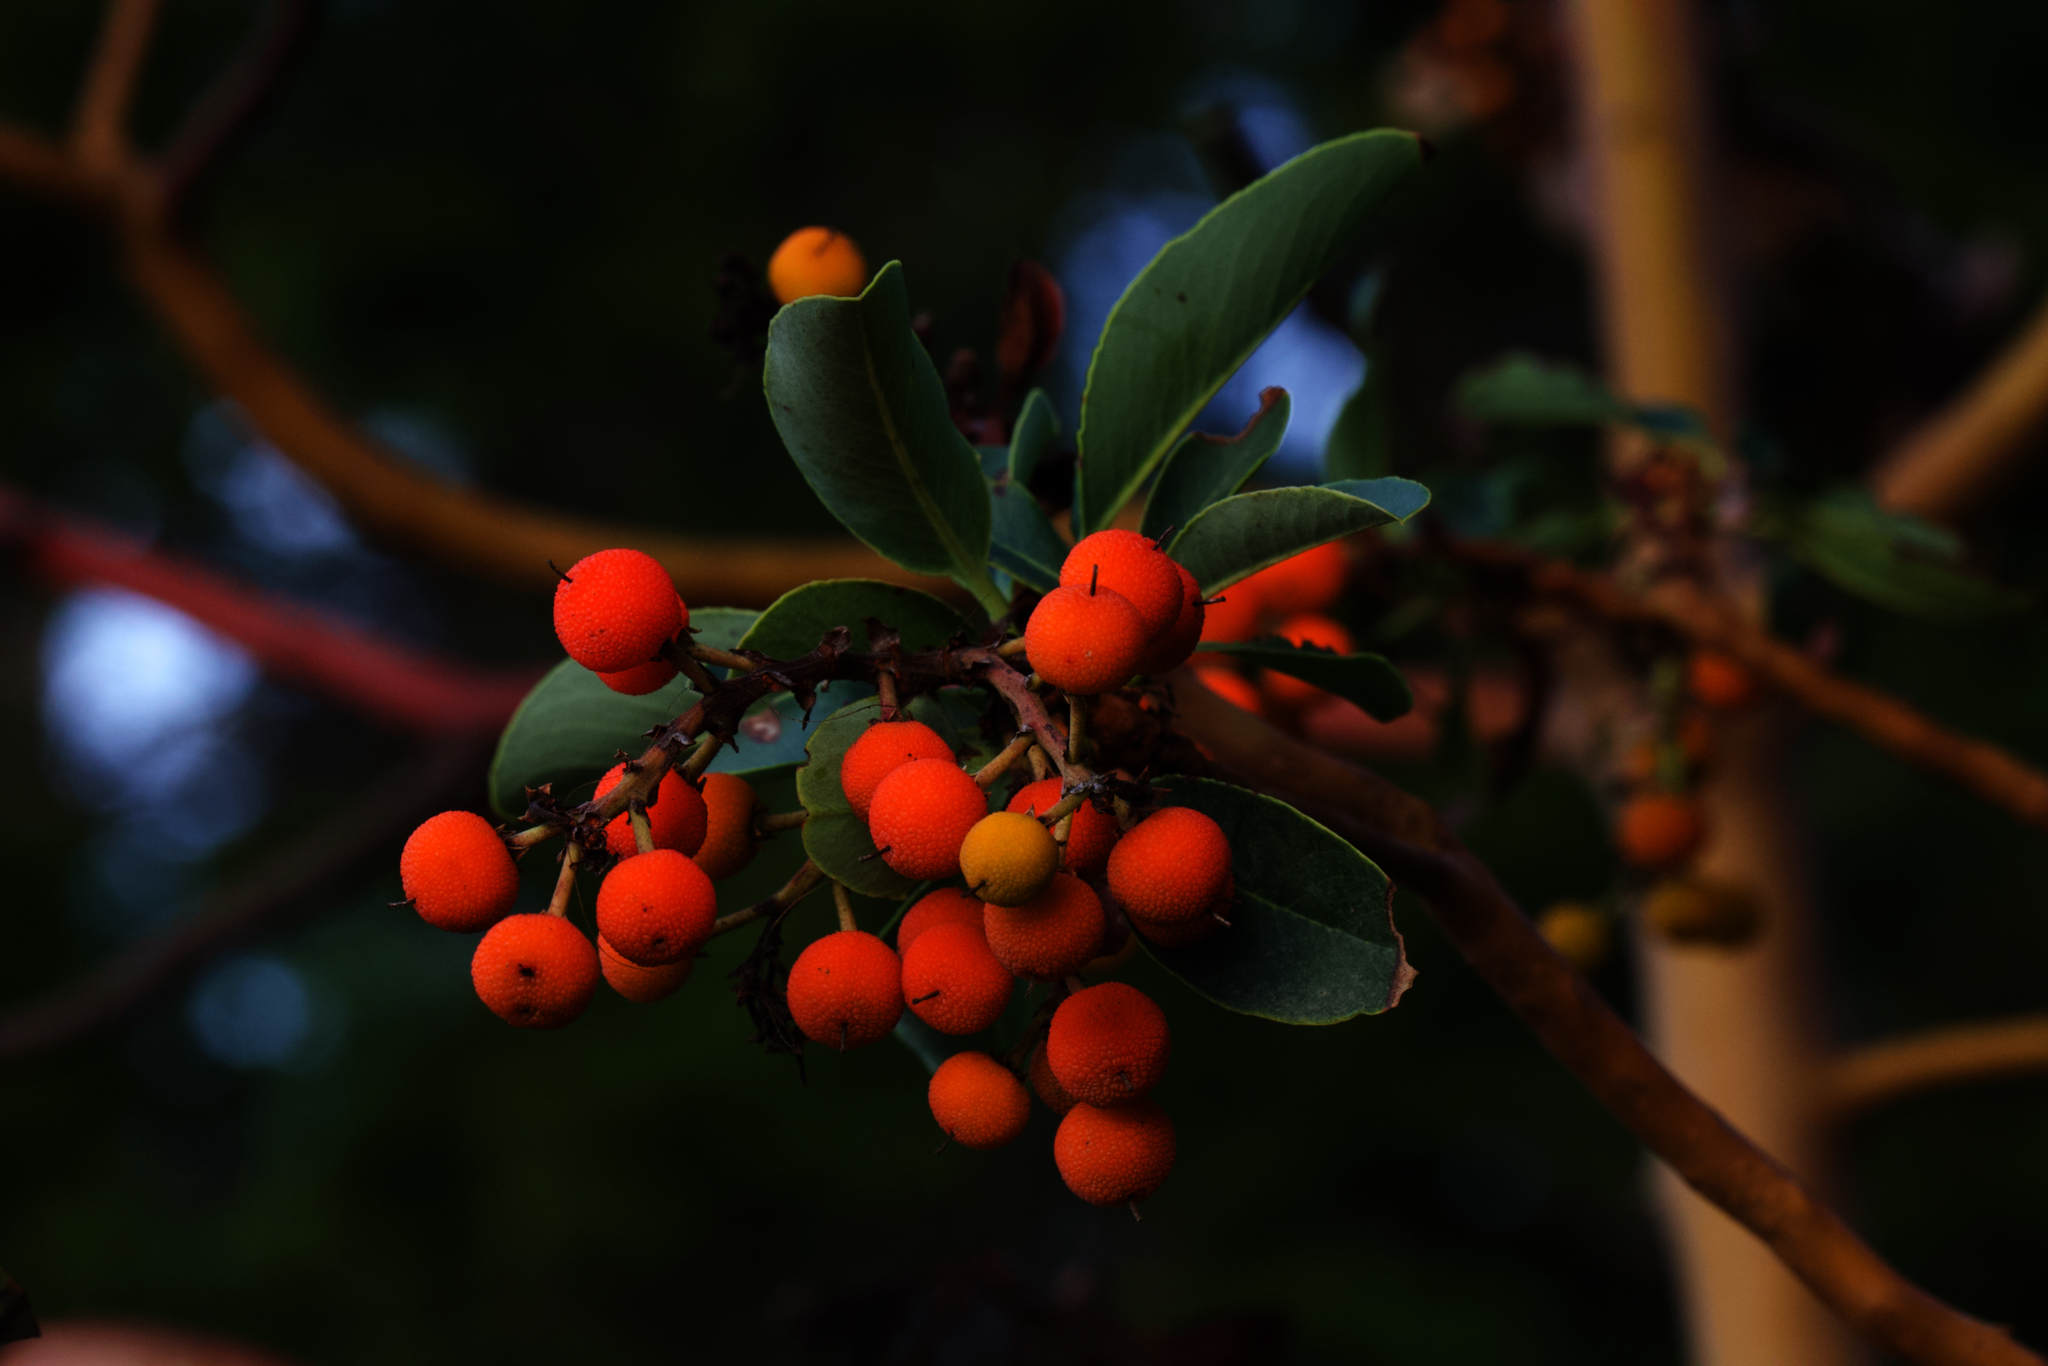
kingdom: Plantae
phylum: Tracheophyta
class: Magnoliopsida
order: Ericales
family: Ericaceae
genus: Arbutus
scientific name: Arbutus menziesii
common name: Pacific madrone
